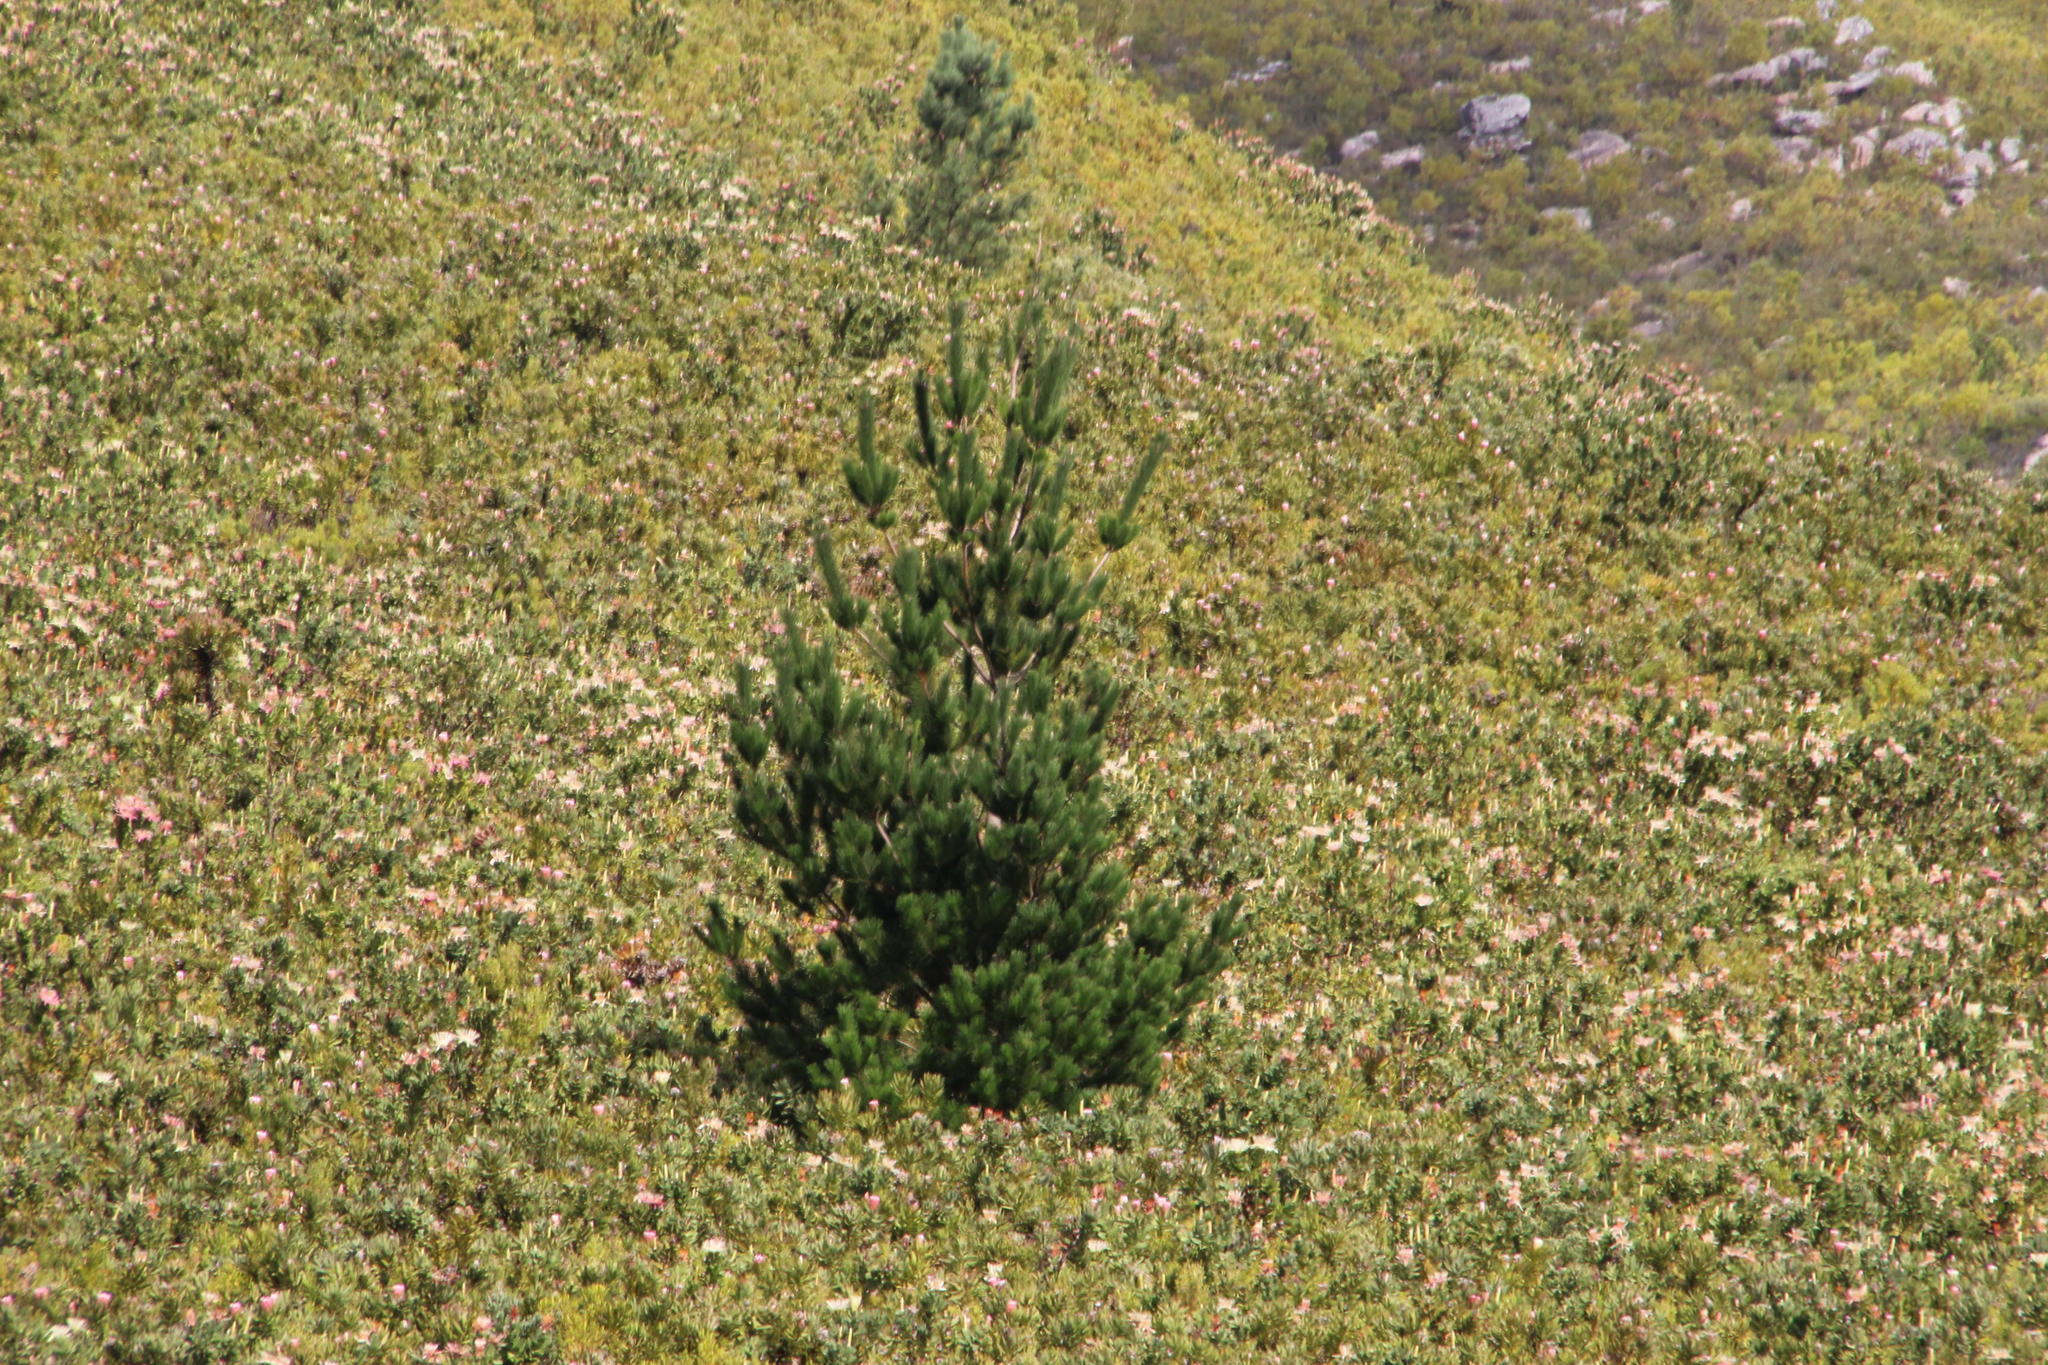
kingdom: Plantae
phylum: Tracheophyta
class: Pinopsida
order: Pinales
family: Pinaceae
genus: Pinus
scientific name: Pinus radiata
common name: Monterey pine
